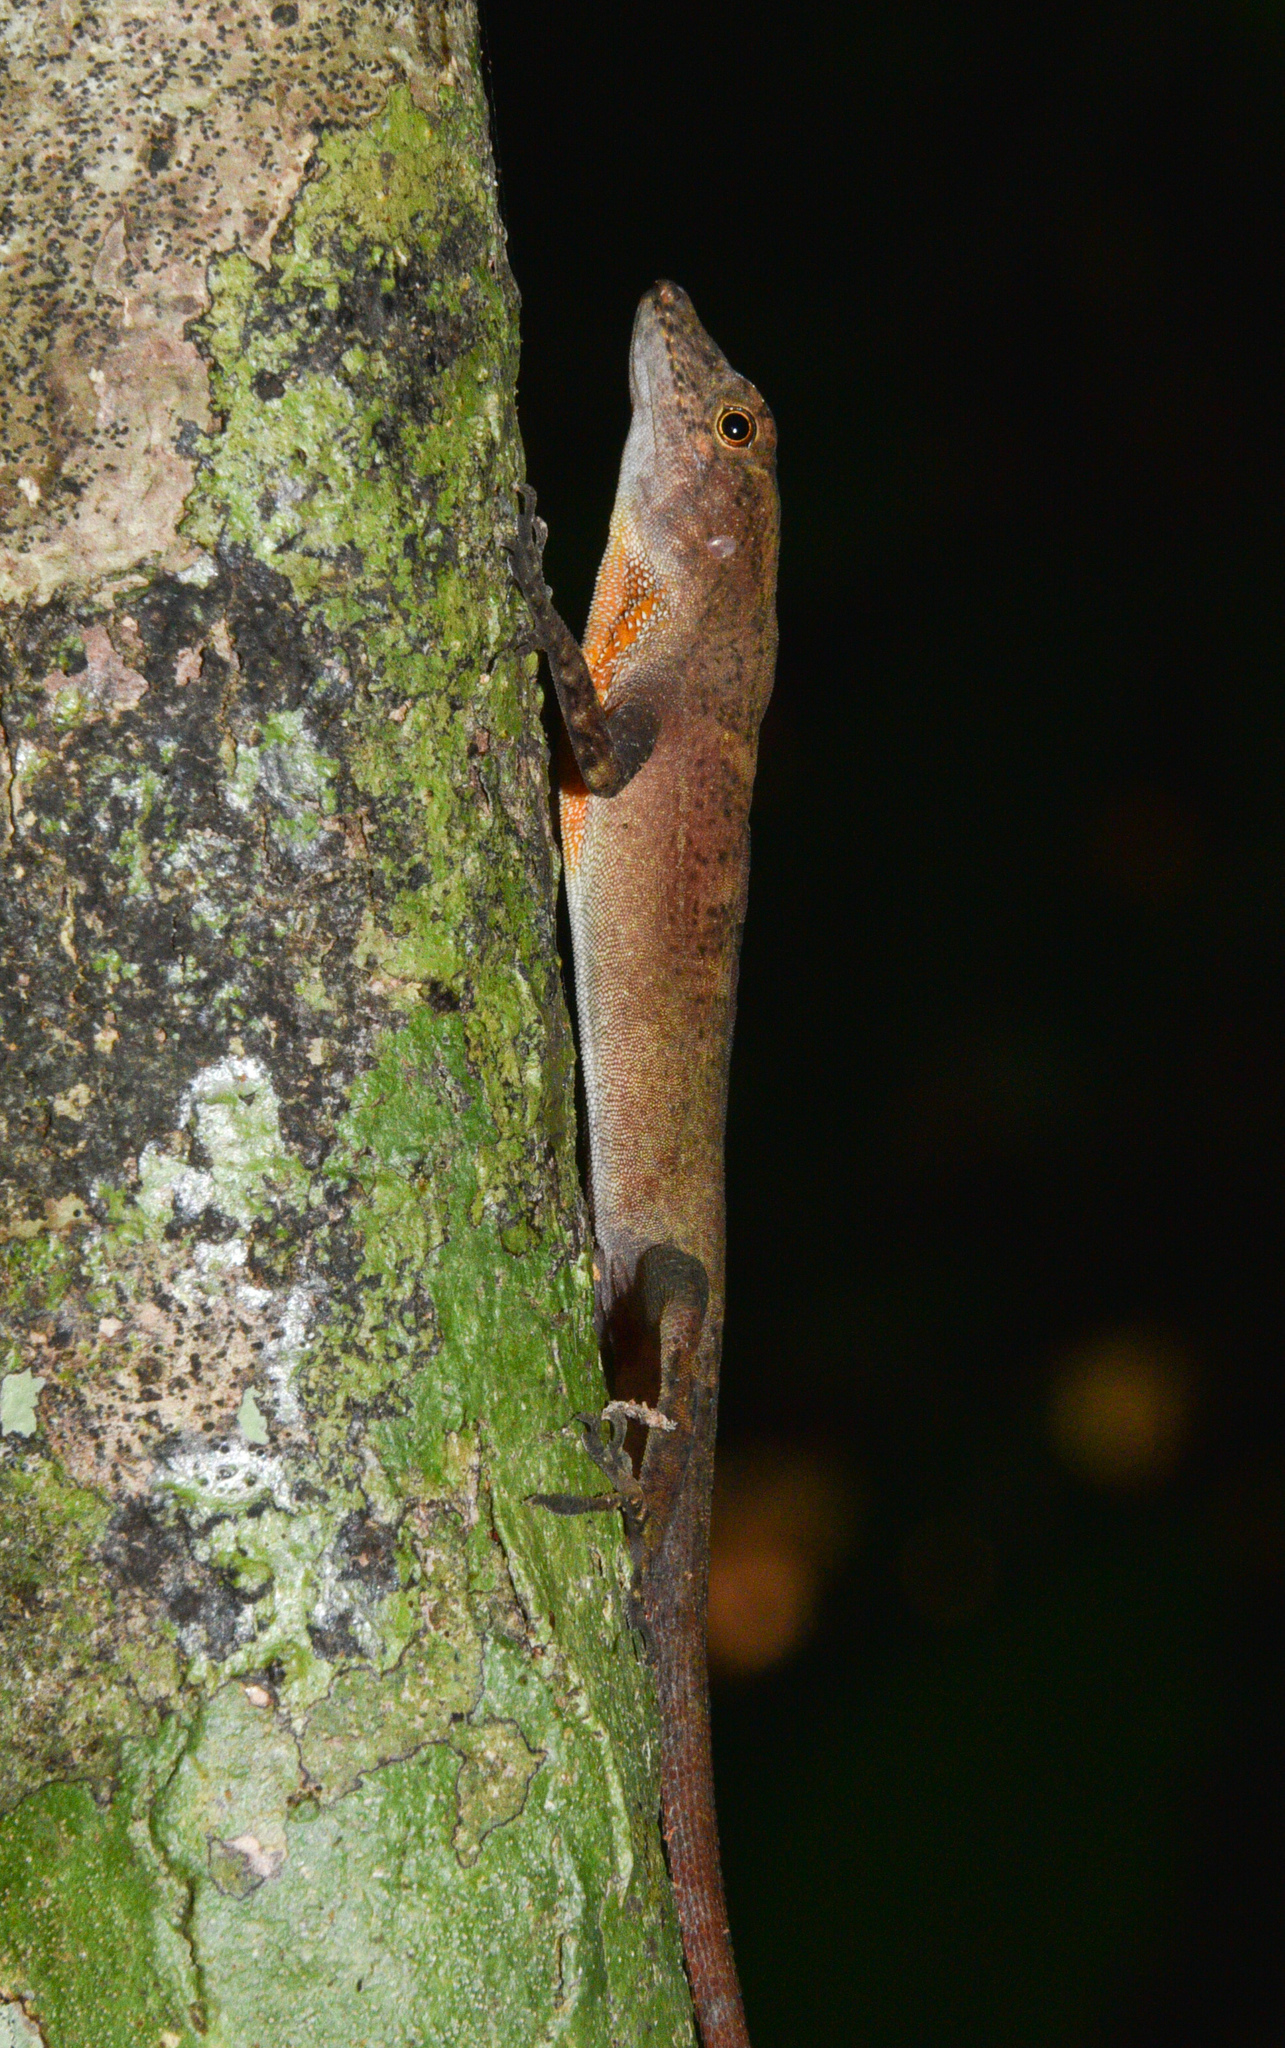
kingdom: Animalia
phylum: Chordata
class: Squamata
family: Dactyloidae
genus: Anolis
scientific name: Anolis osa
